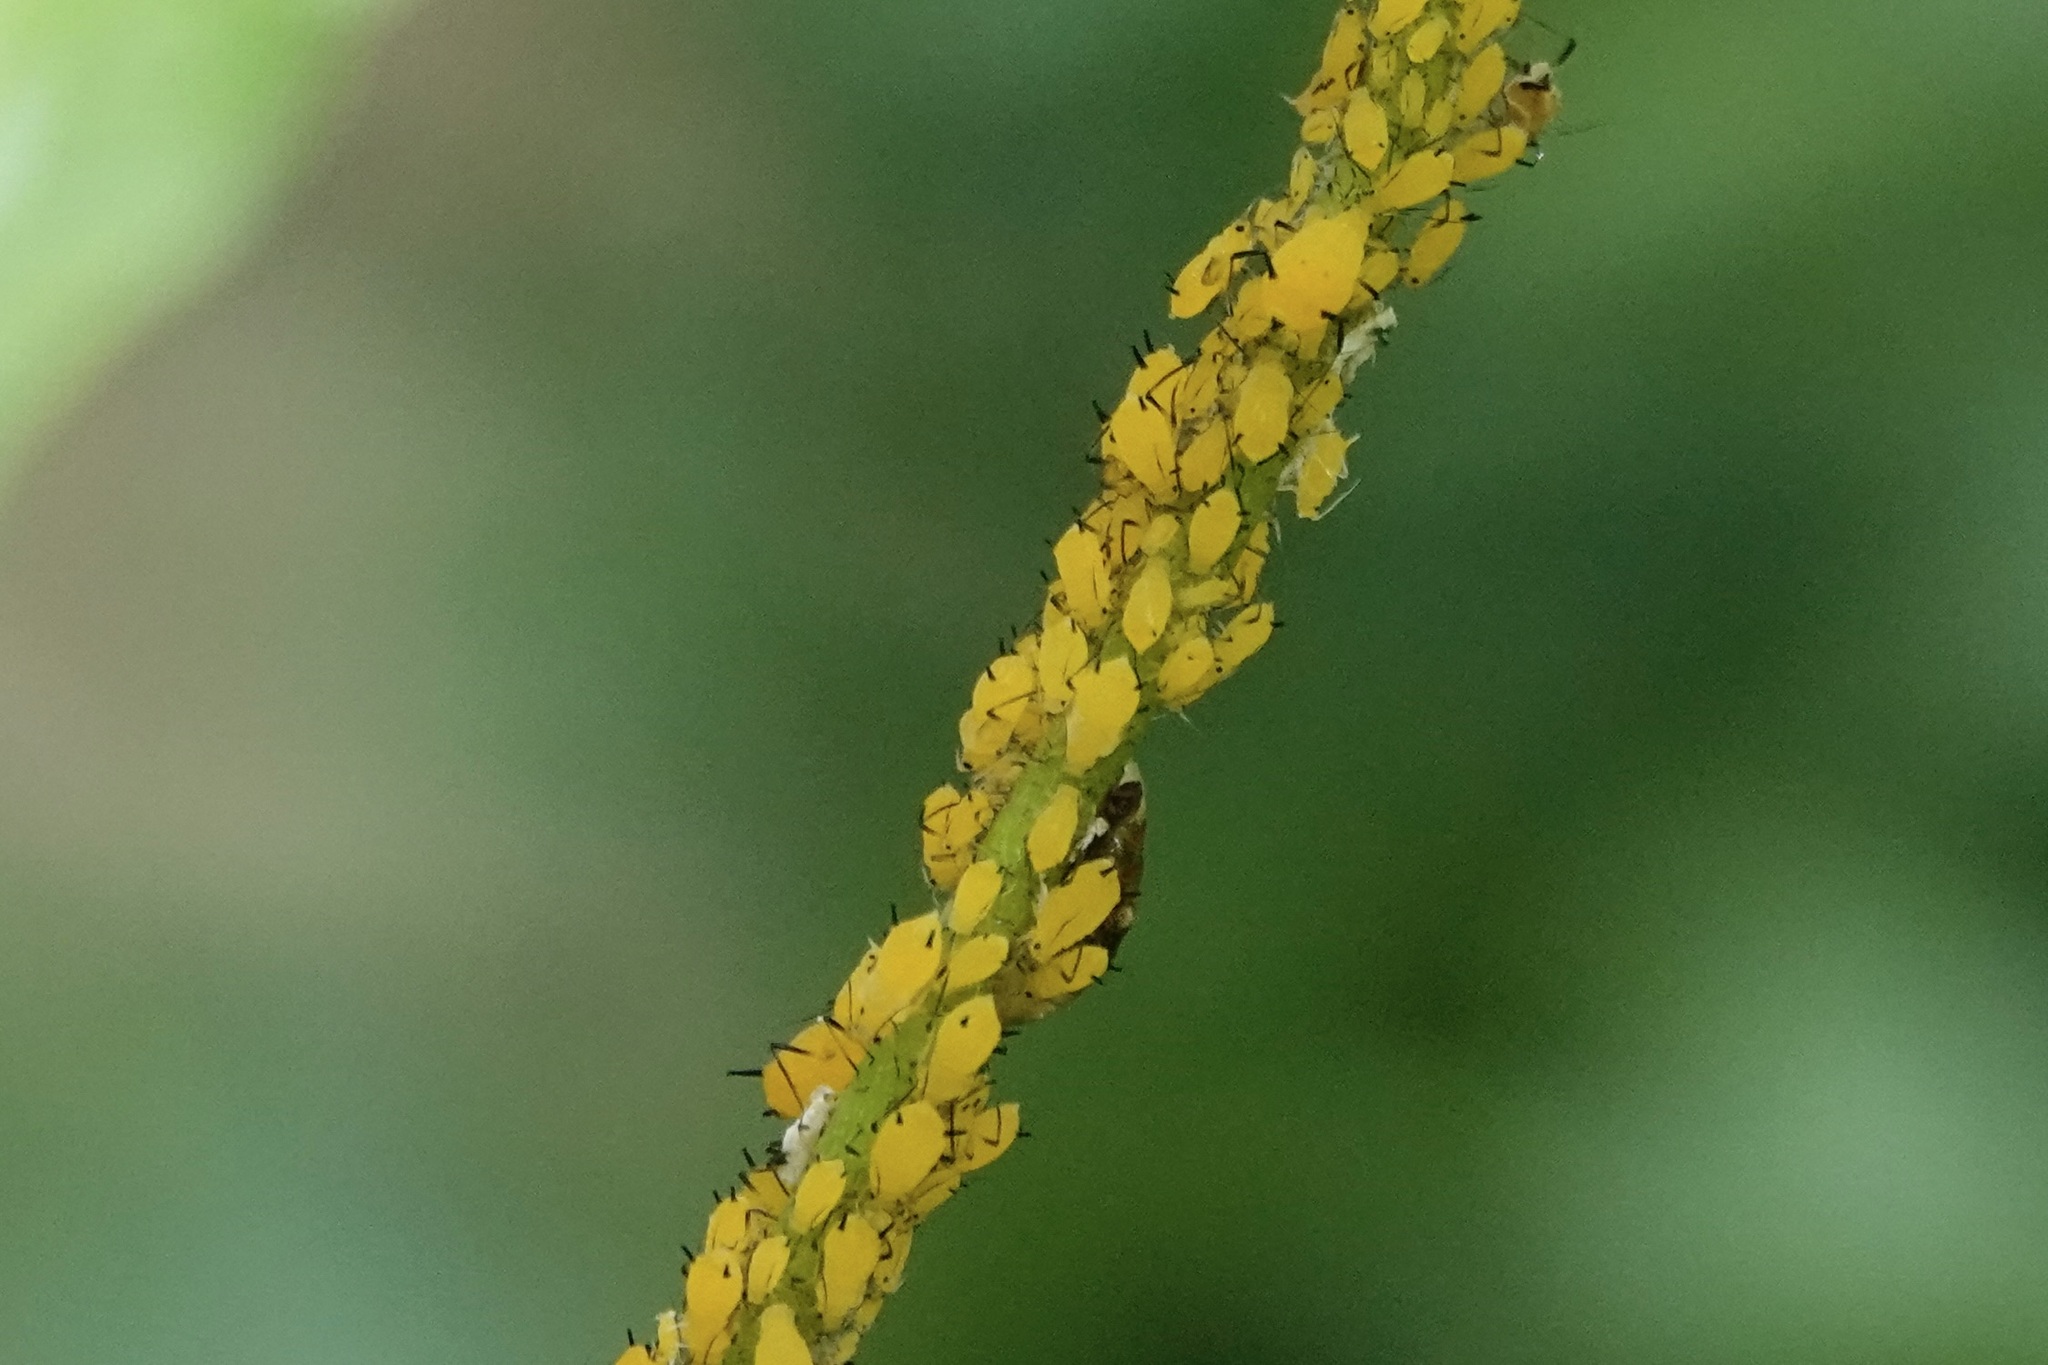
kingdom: Animalia
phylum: Arthropoda
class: Insecta
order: Hemiptera
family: Aphididae
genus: Aphis
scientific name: Aphis nerii
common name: Oleander aphid
